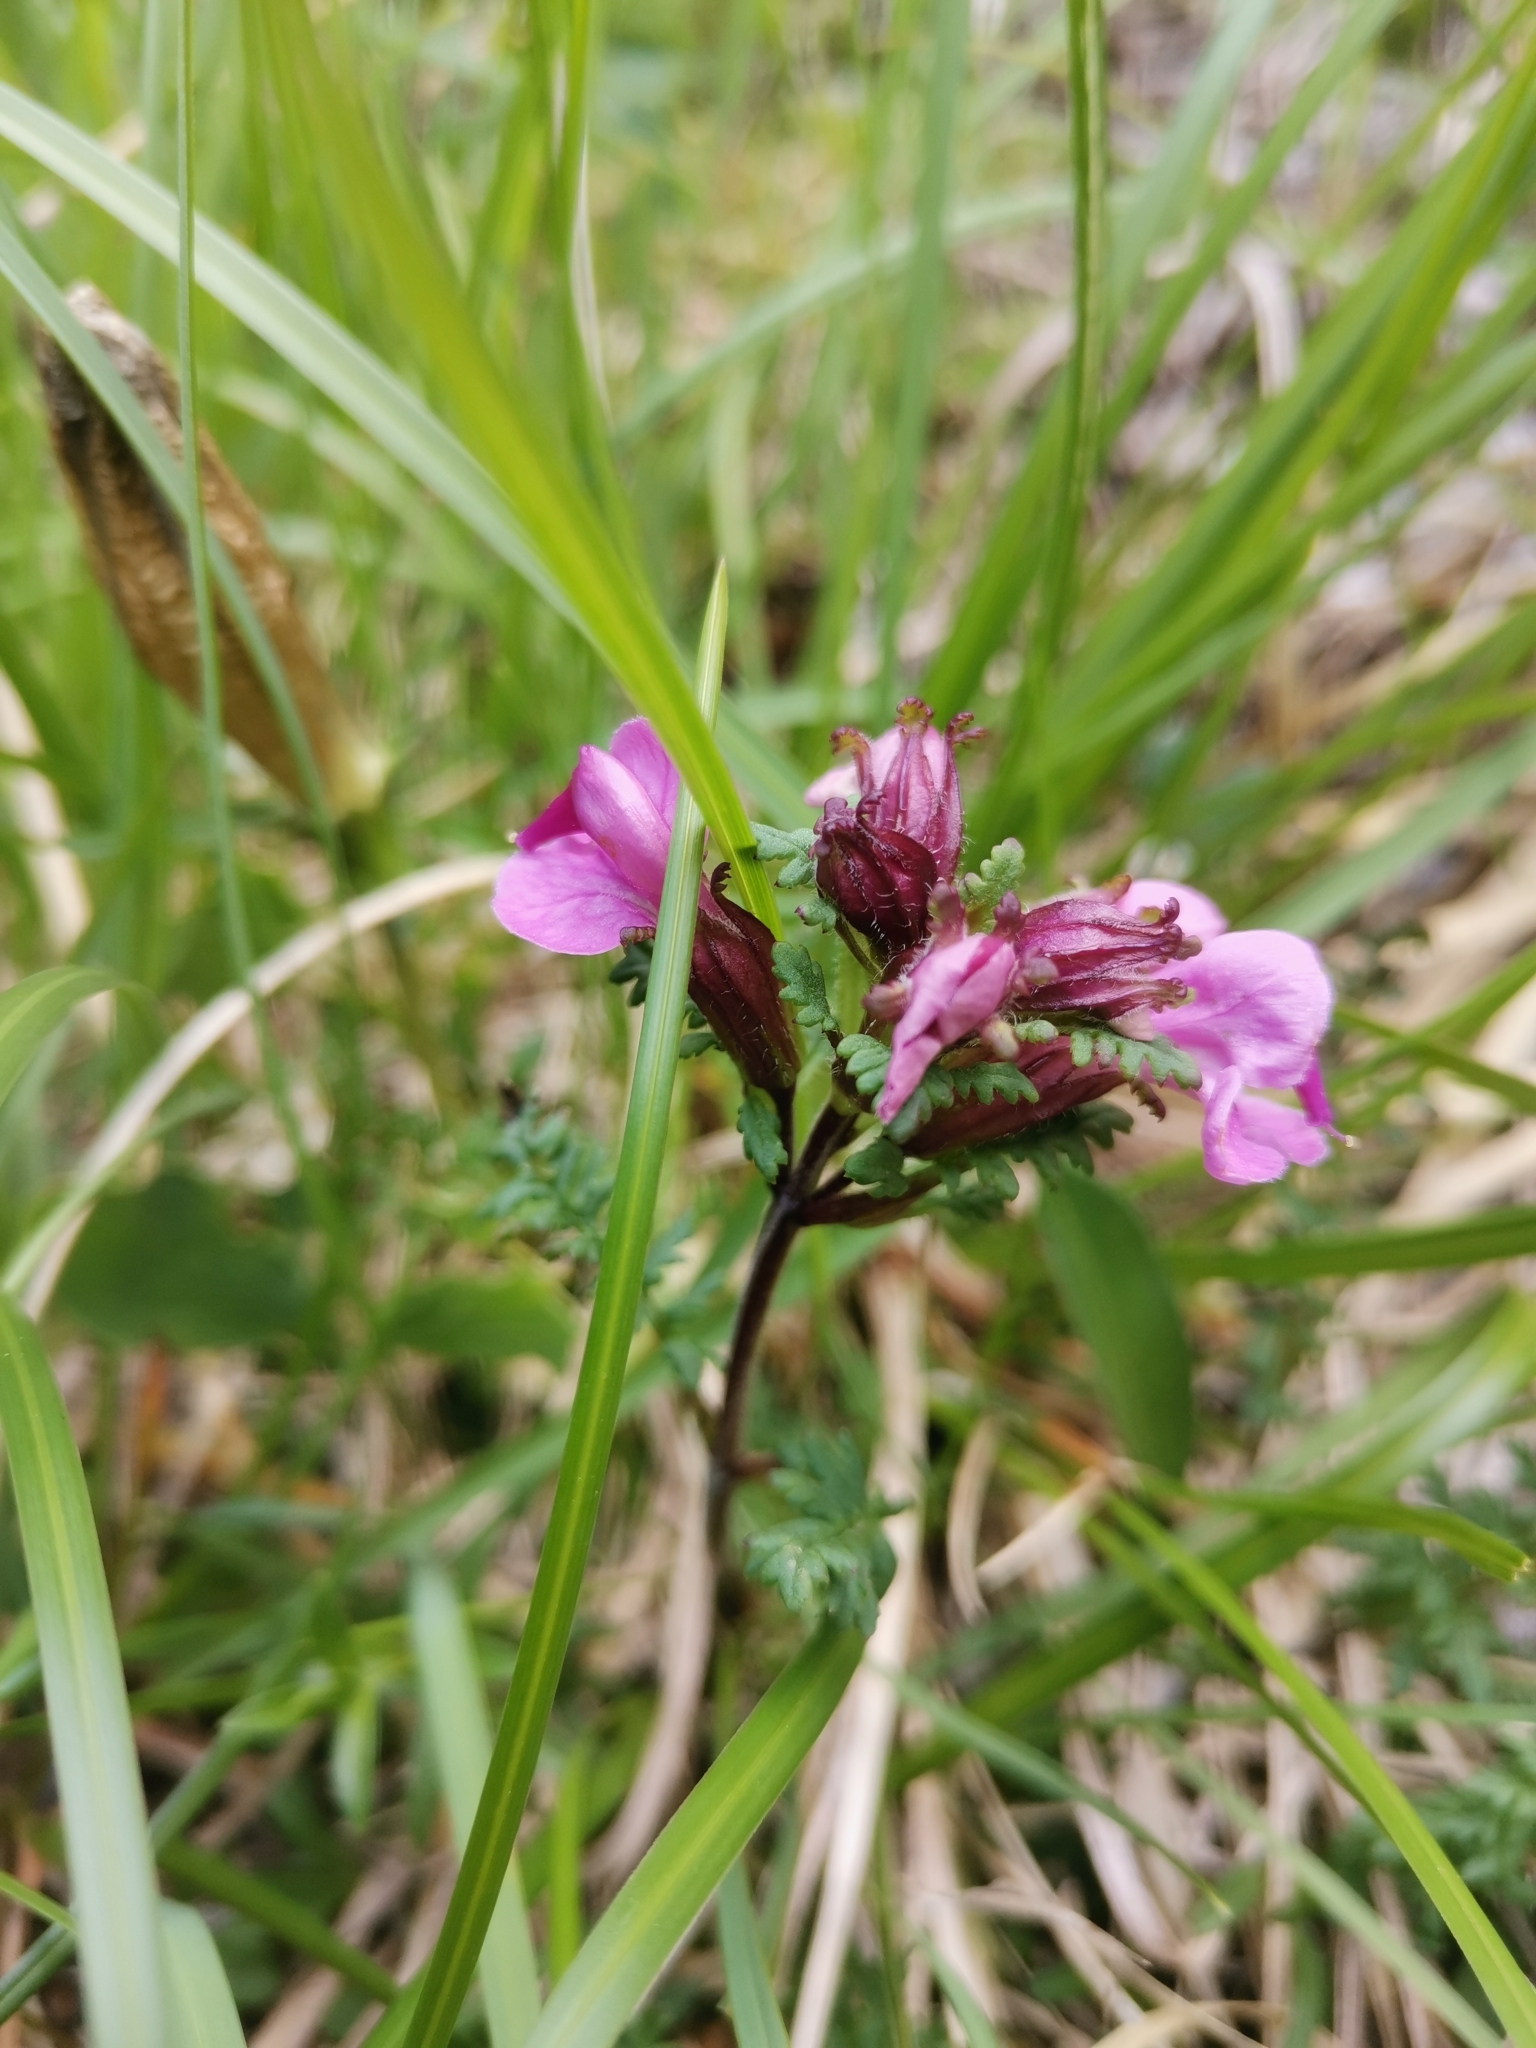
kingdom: Plantae
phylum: Tracheophyta
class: Magnoliopsida
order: Lamiales
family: Orobanchaceae
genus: Pedicularis
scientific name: Pedicularis rostratocapitata
